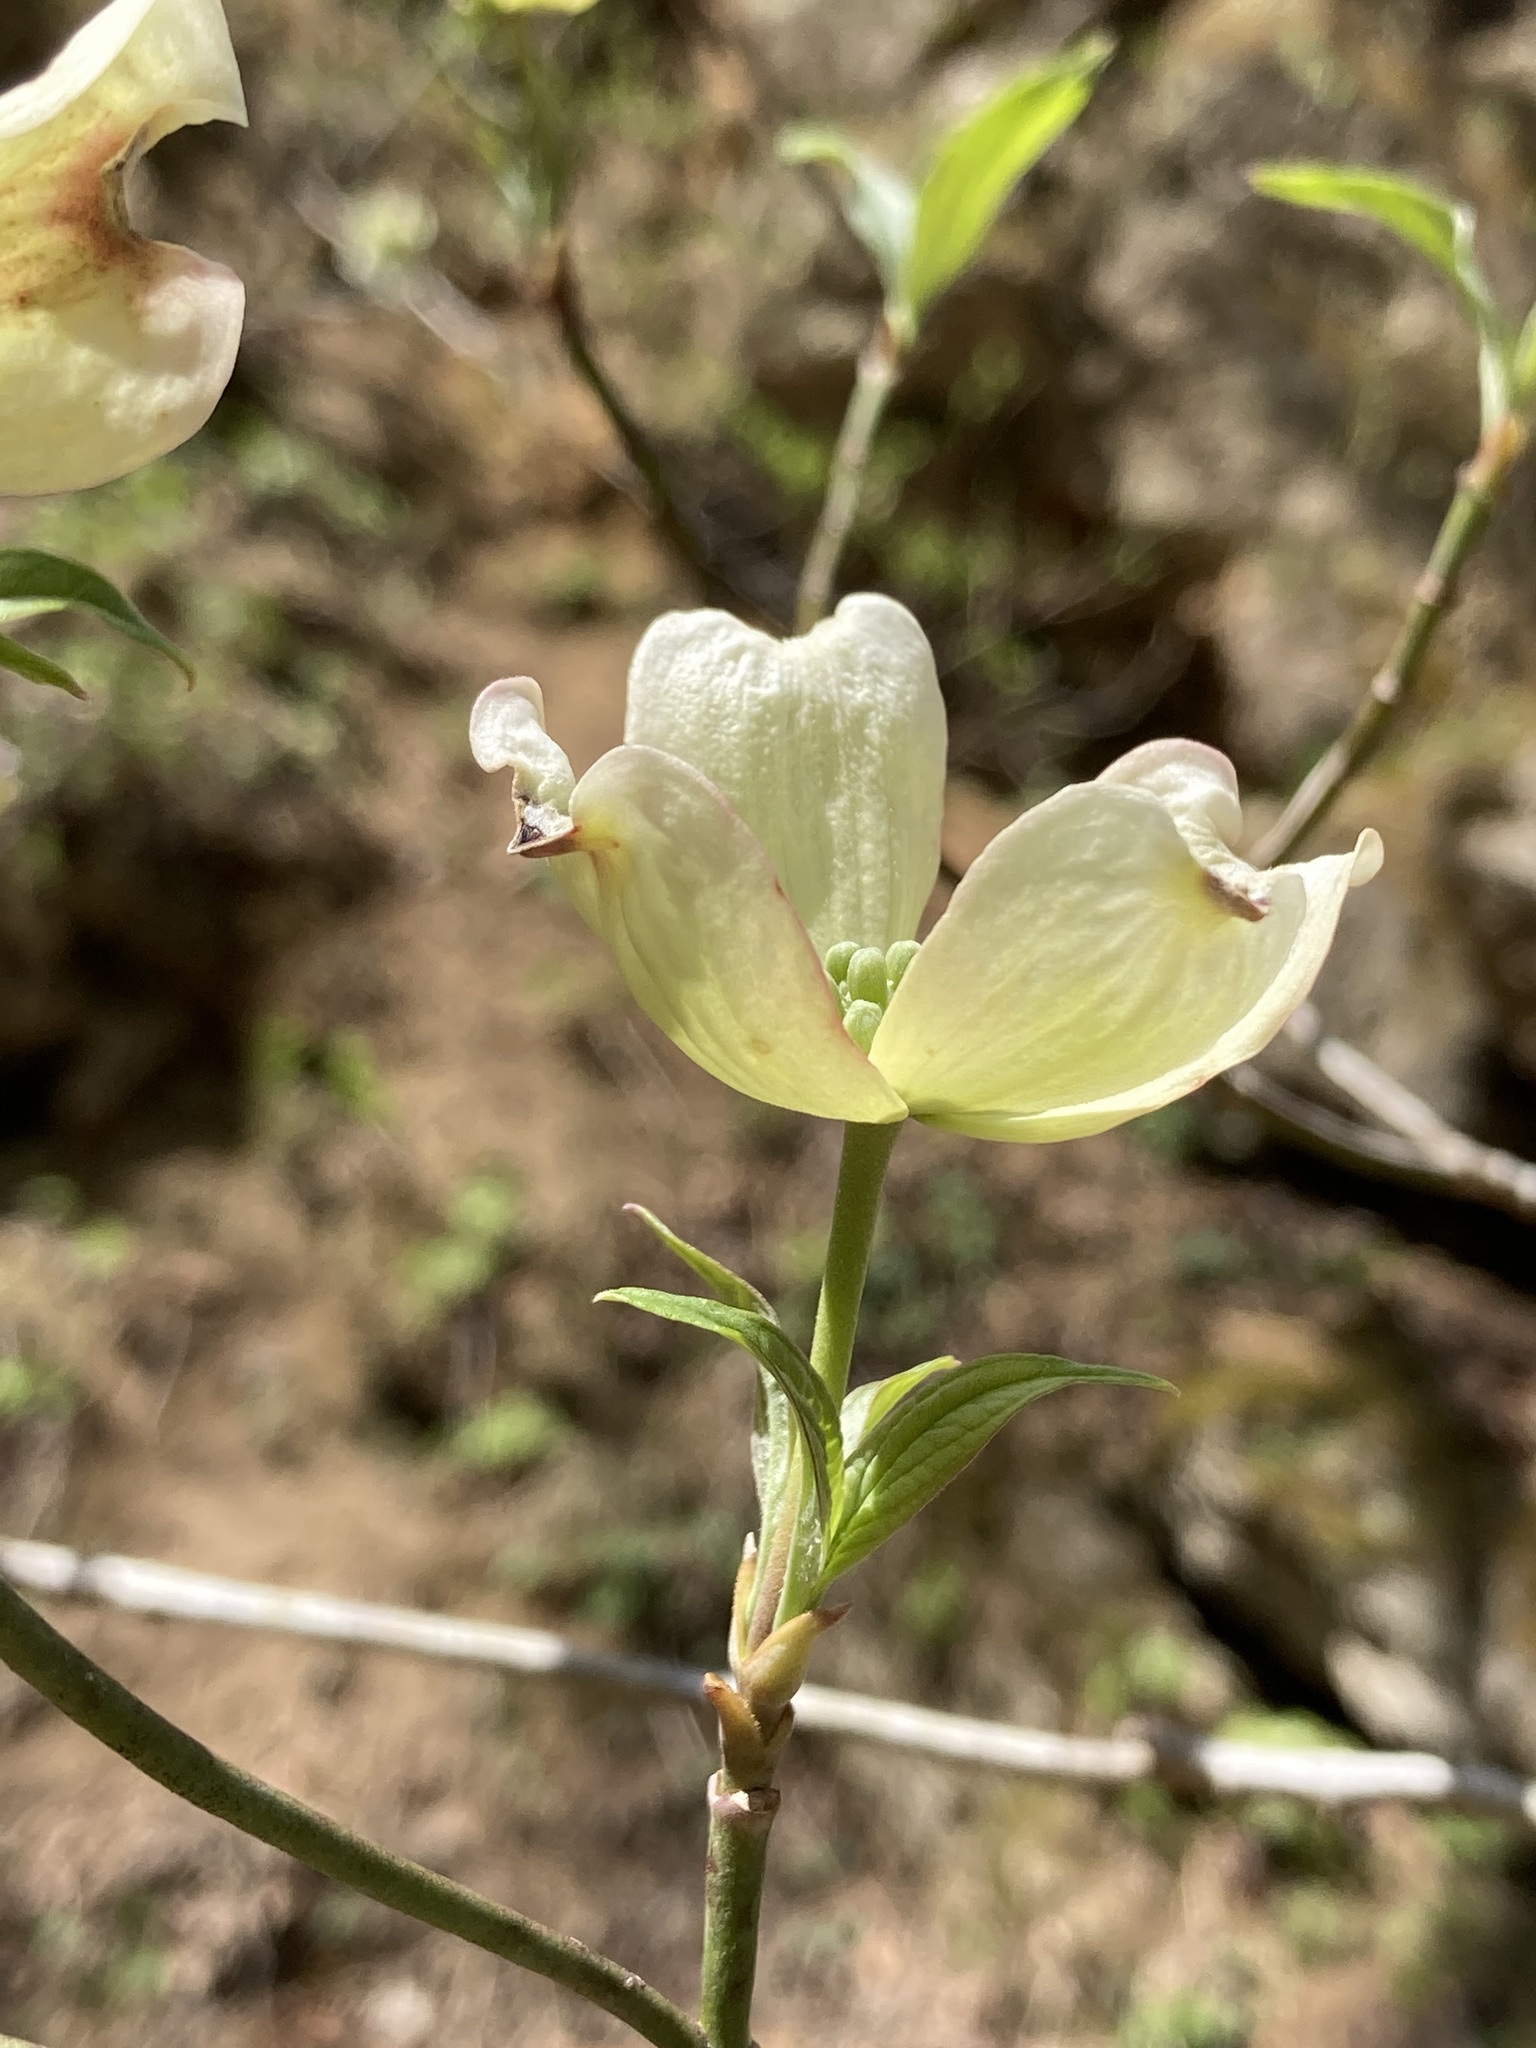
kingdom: Plantae
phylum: Tracheophyta
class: Magnoliopsida
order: Cornales
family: Cornaceae
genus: Cornus
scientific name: Cornus florida
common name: Flowering dogwood
